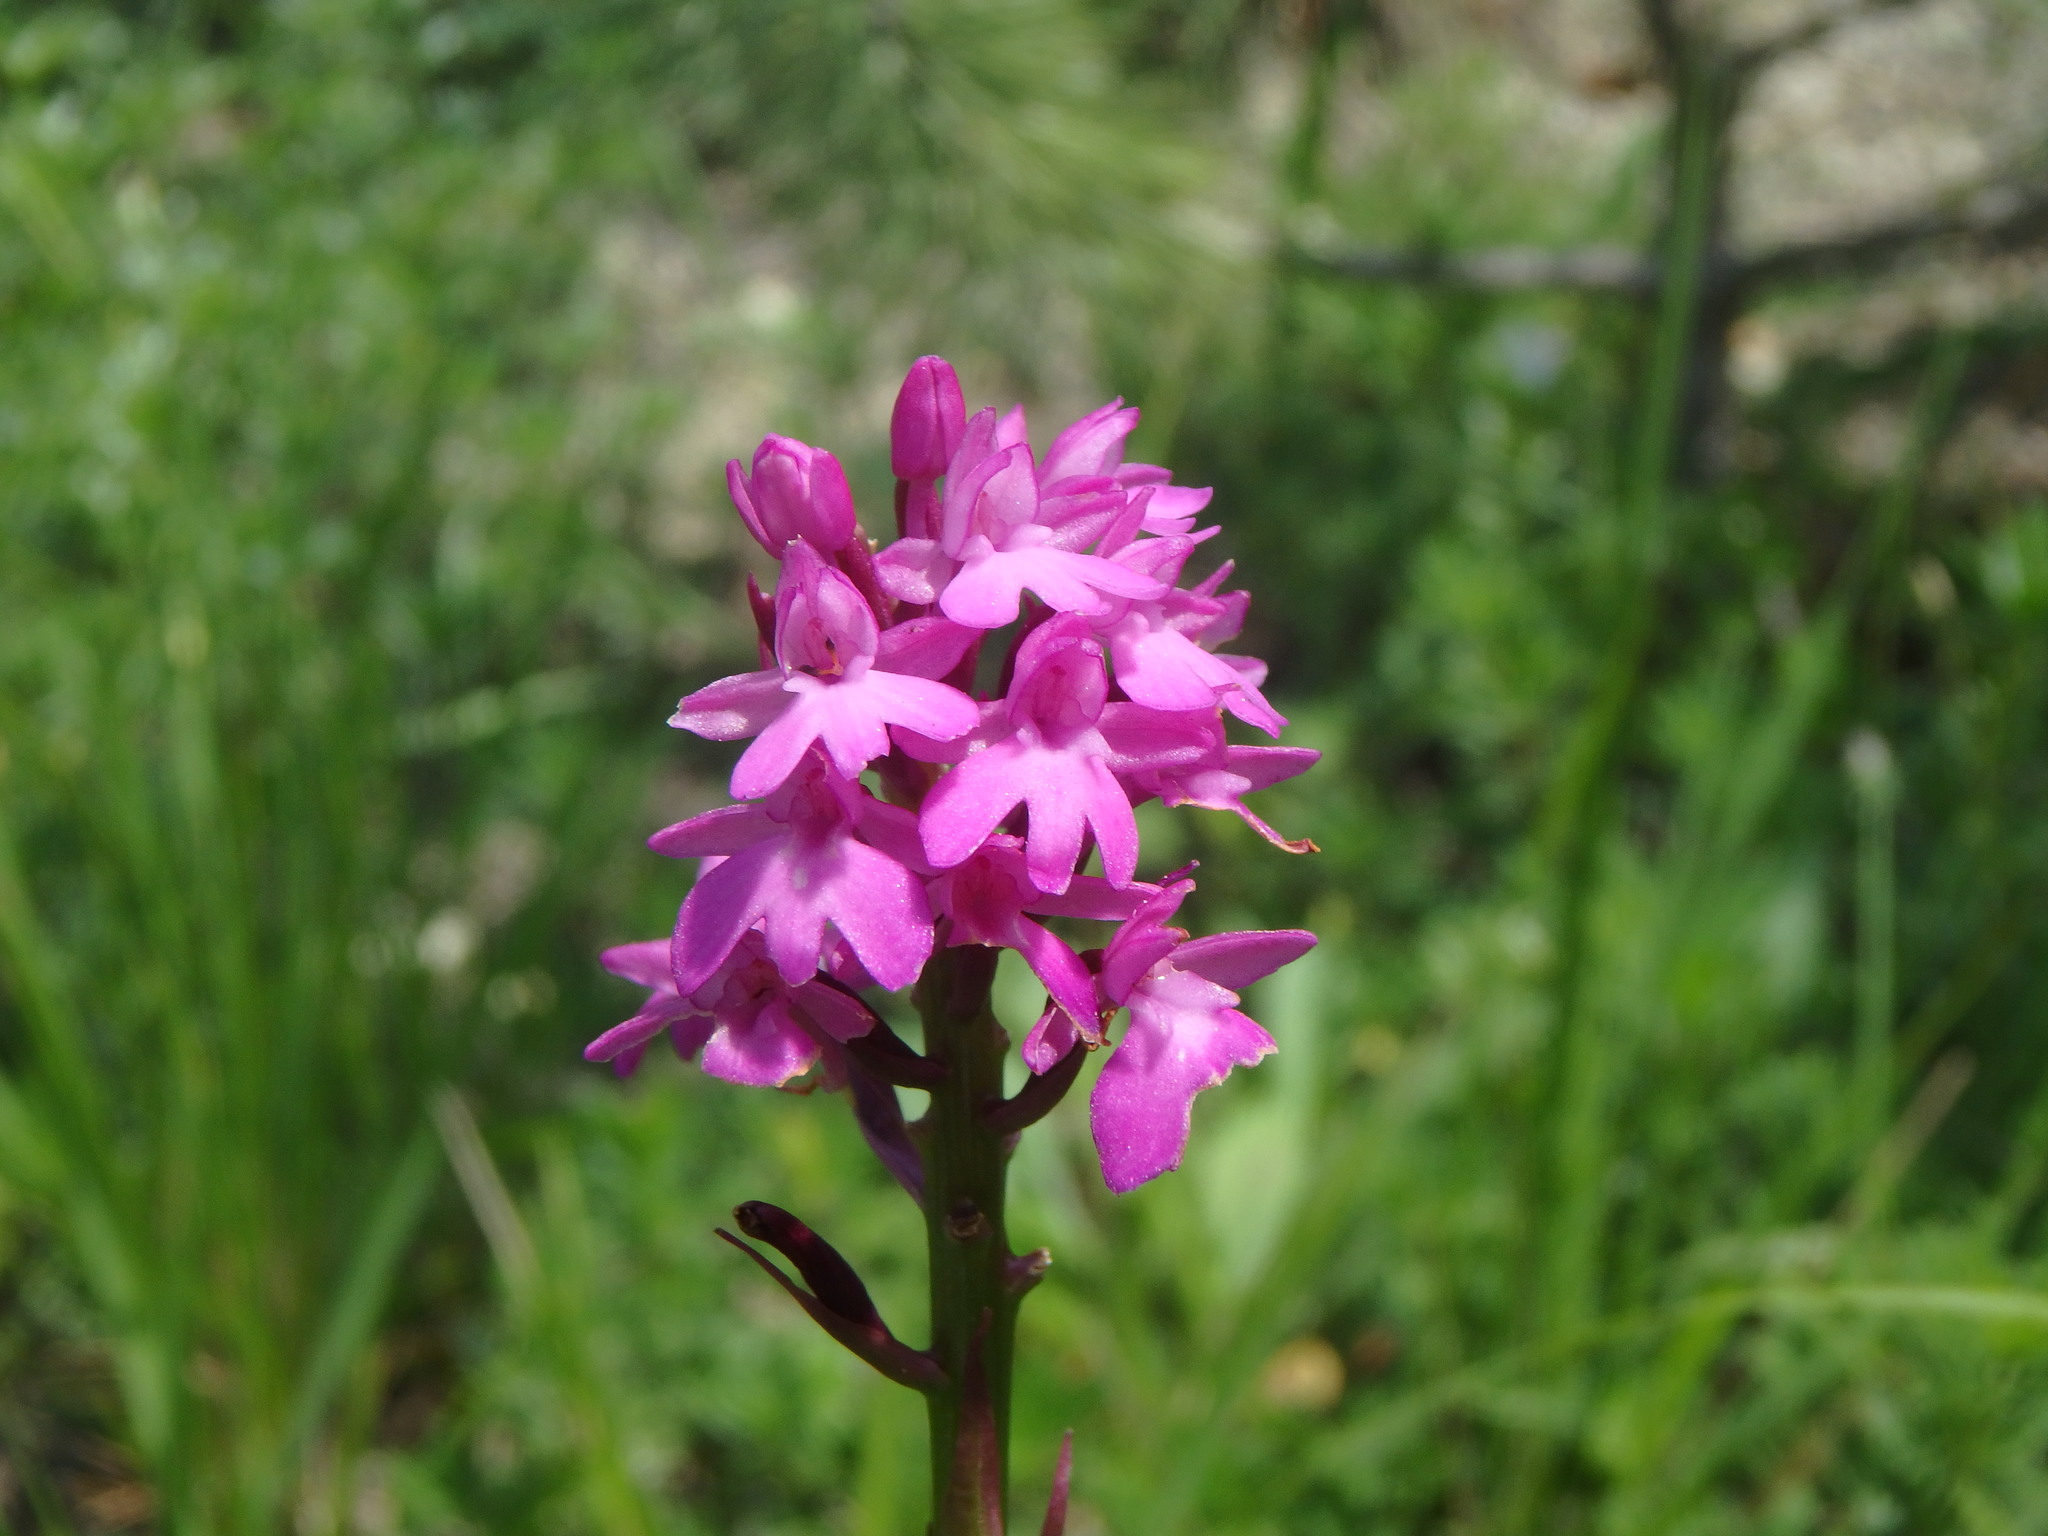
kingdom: Plantae
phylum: Tracheophyta
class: Liliopsida
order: Asparagales
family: Orchidaceae
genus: Anacamptis
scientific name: Anacamptis pyramidalis
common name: Pyramidal orchid
